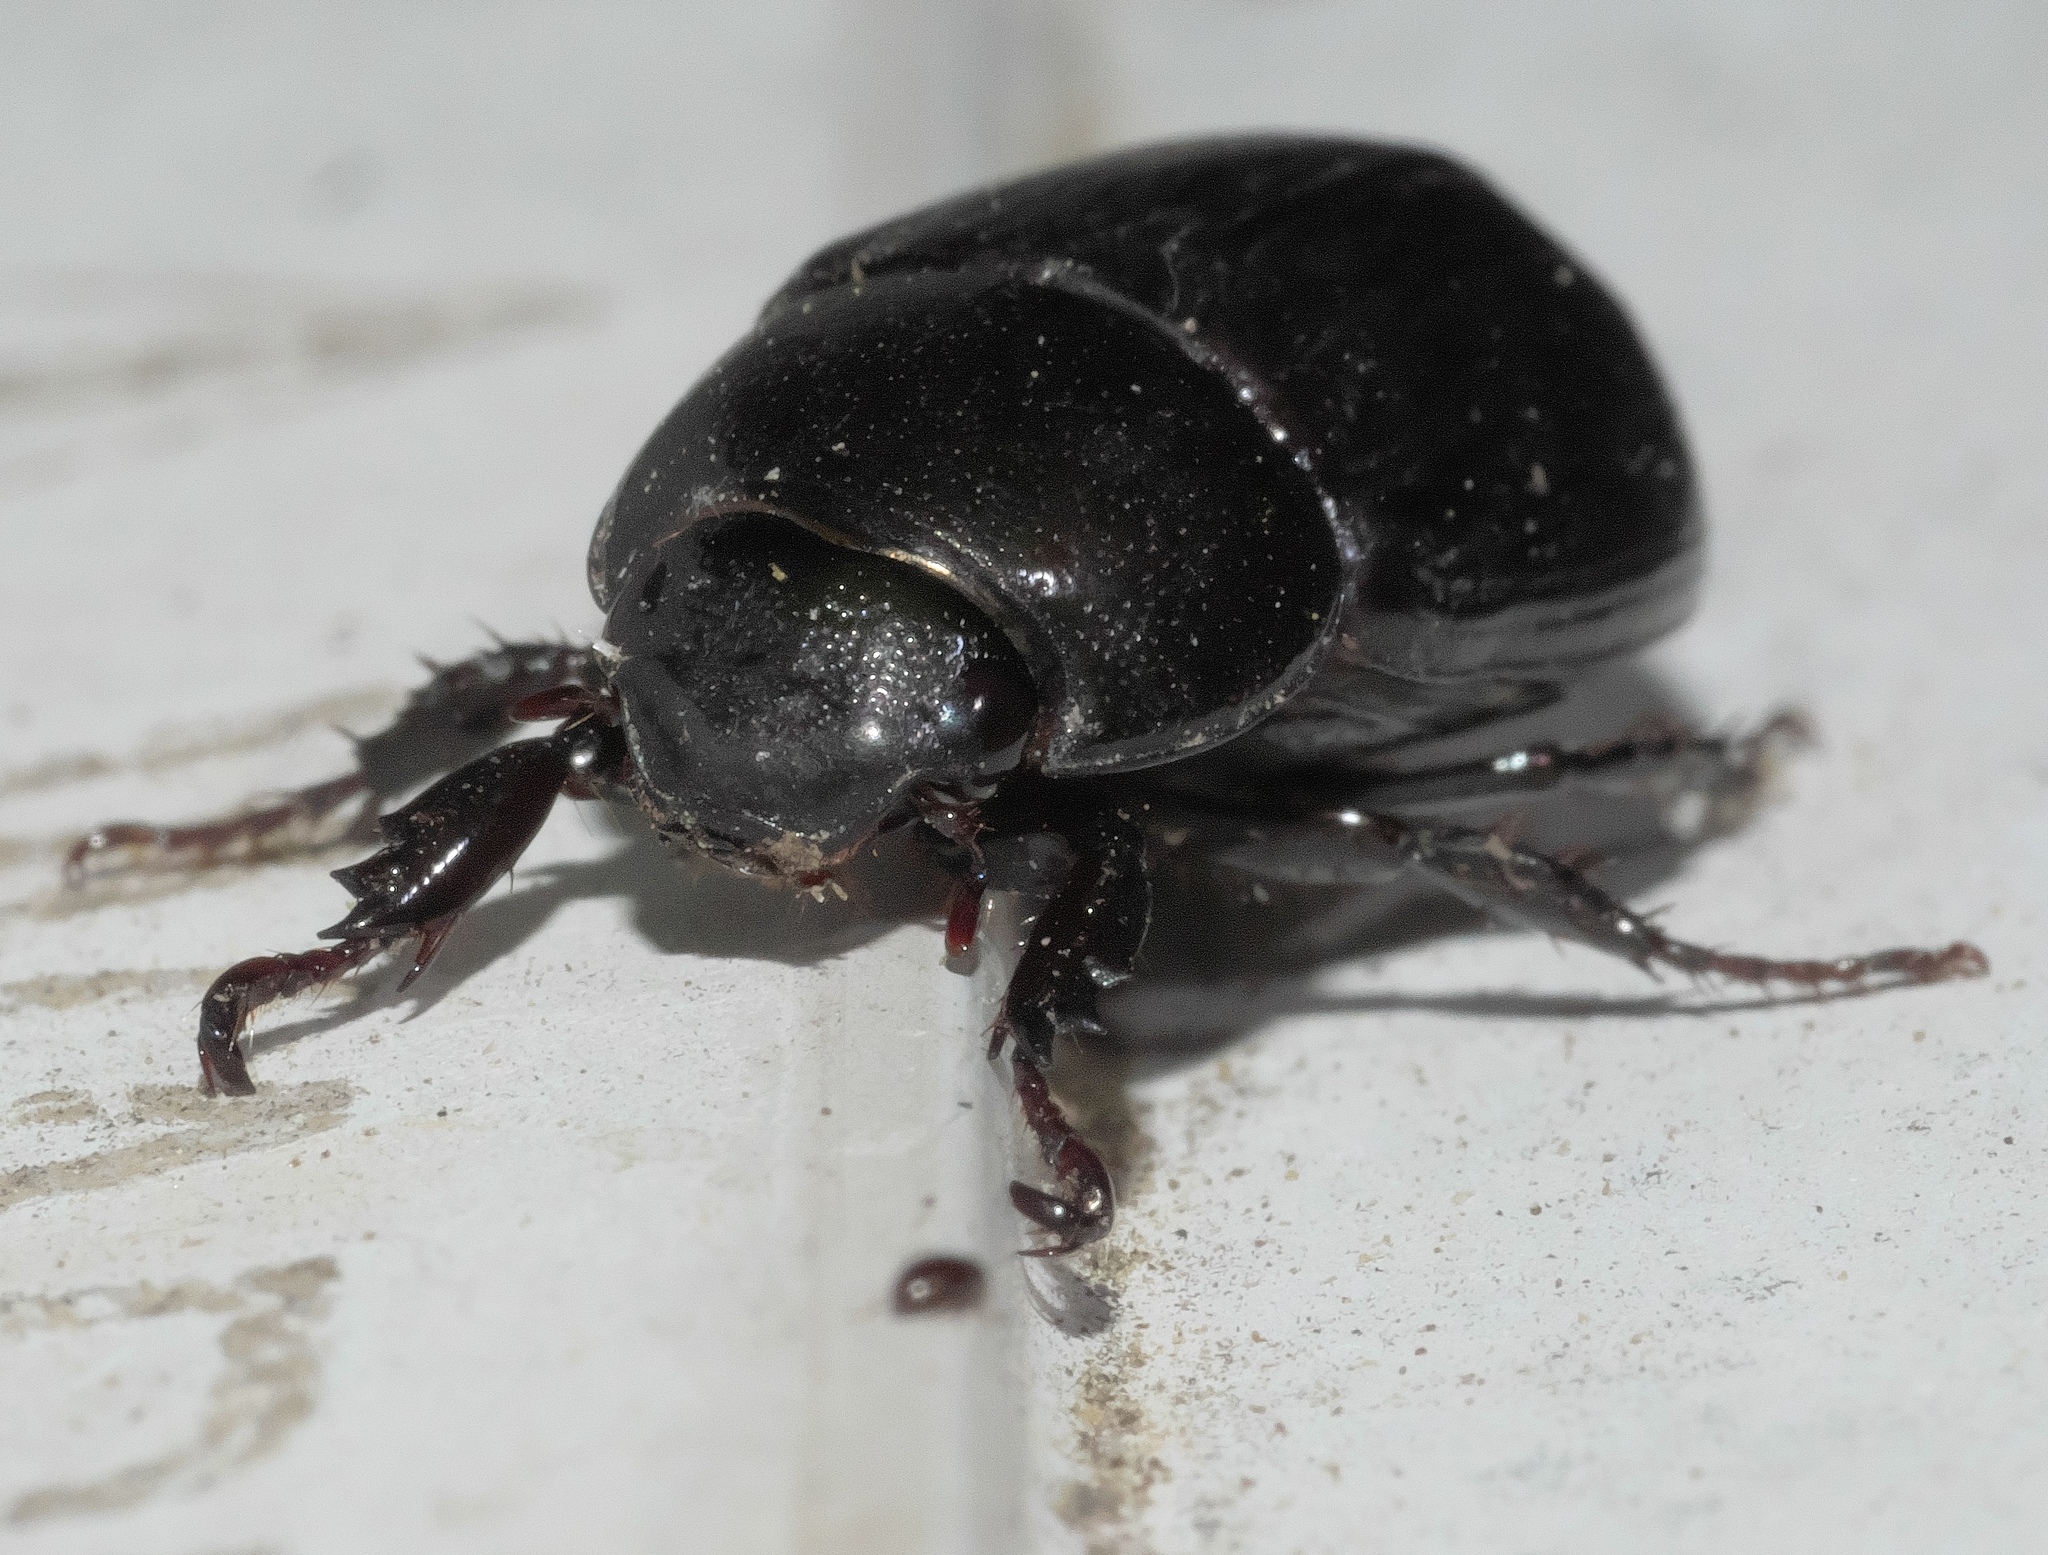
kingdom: Animalia
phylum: Arthropoda
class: Insecta
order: Coleoptera
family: Scarabaeidae
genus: Dyscinetus
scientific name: Dyscinetus morator
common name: Rice beetle
